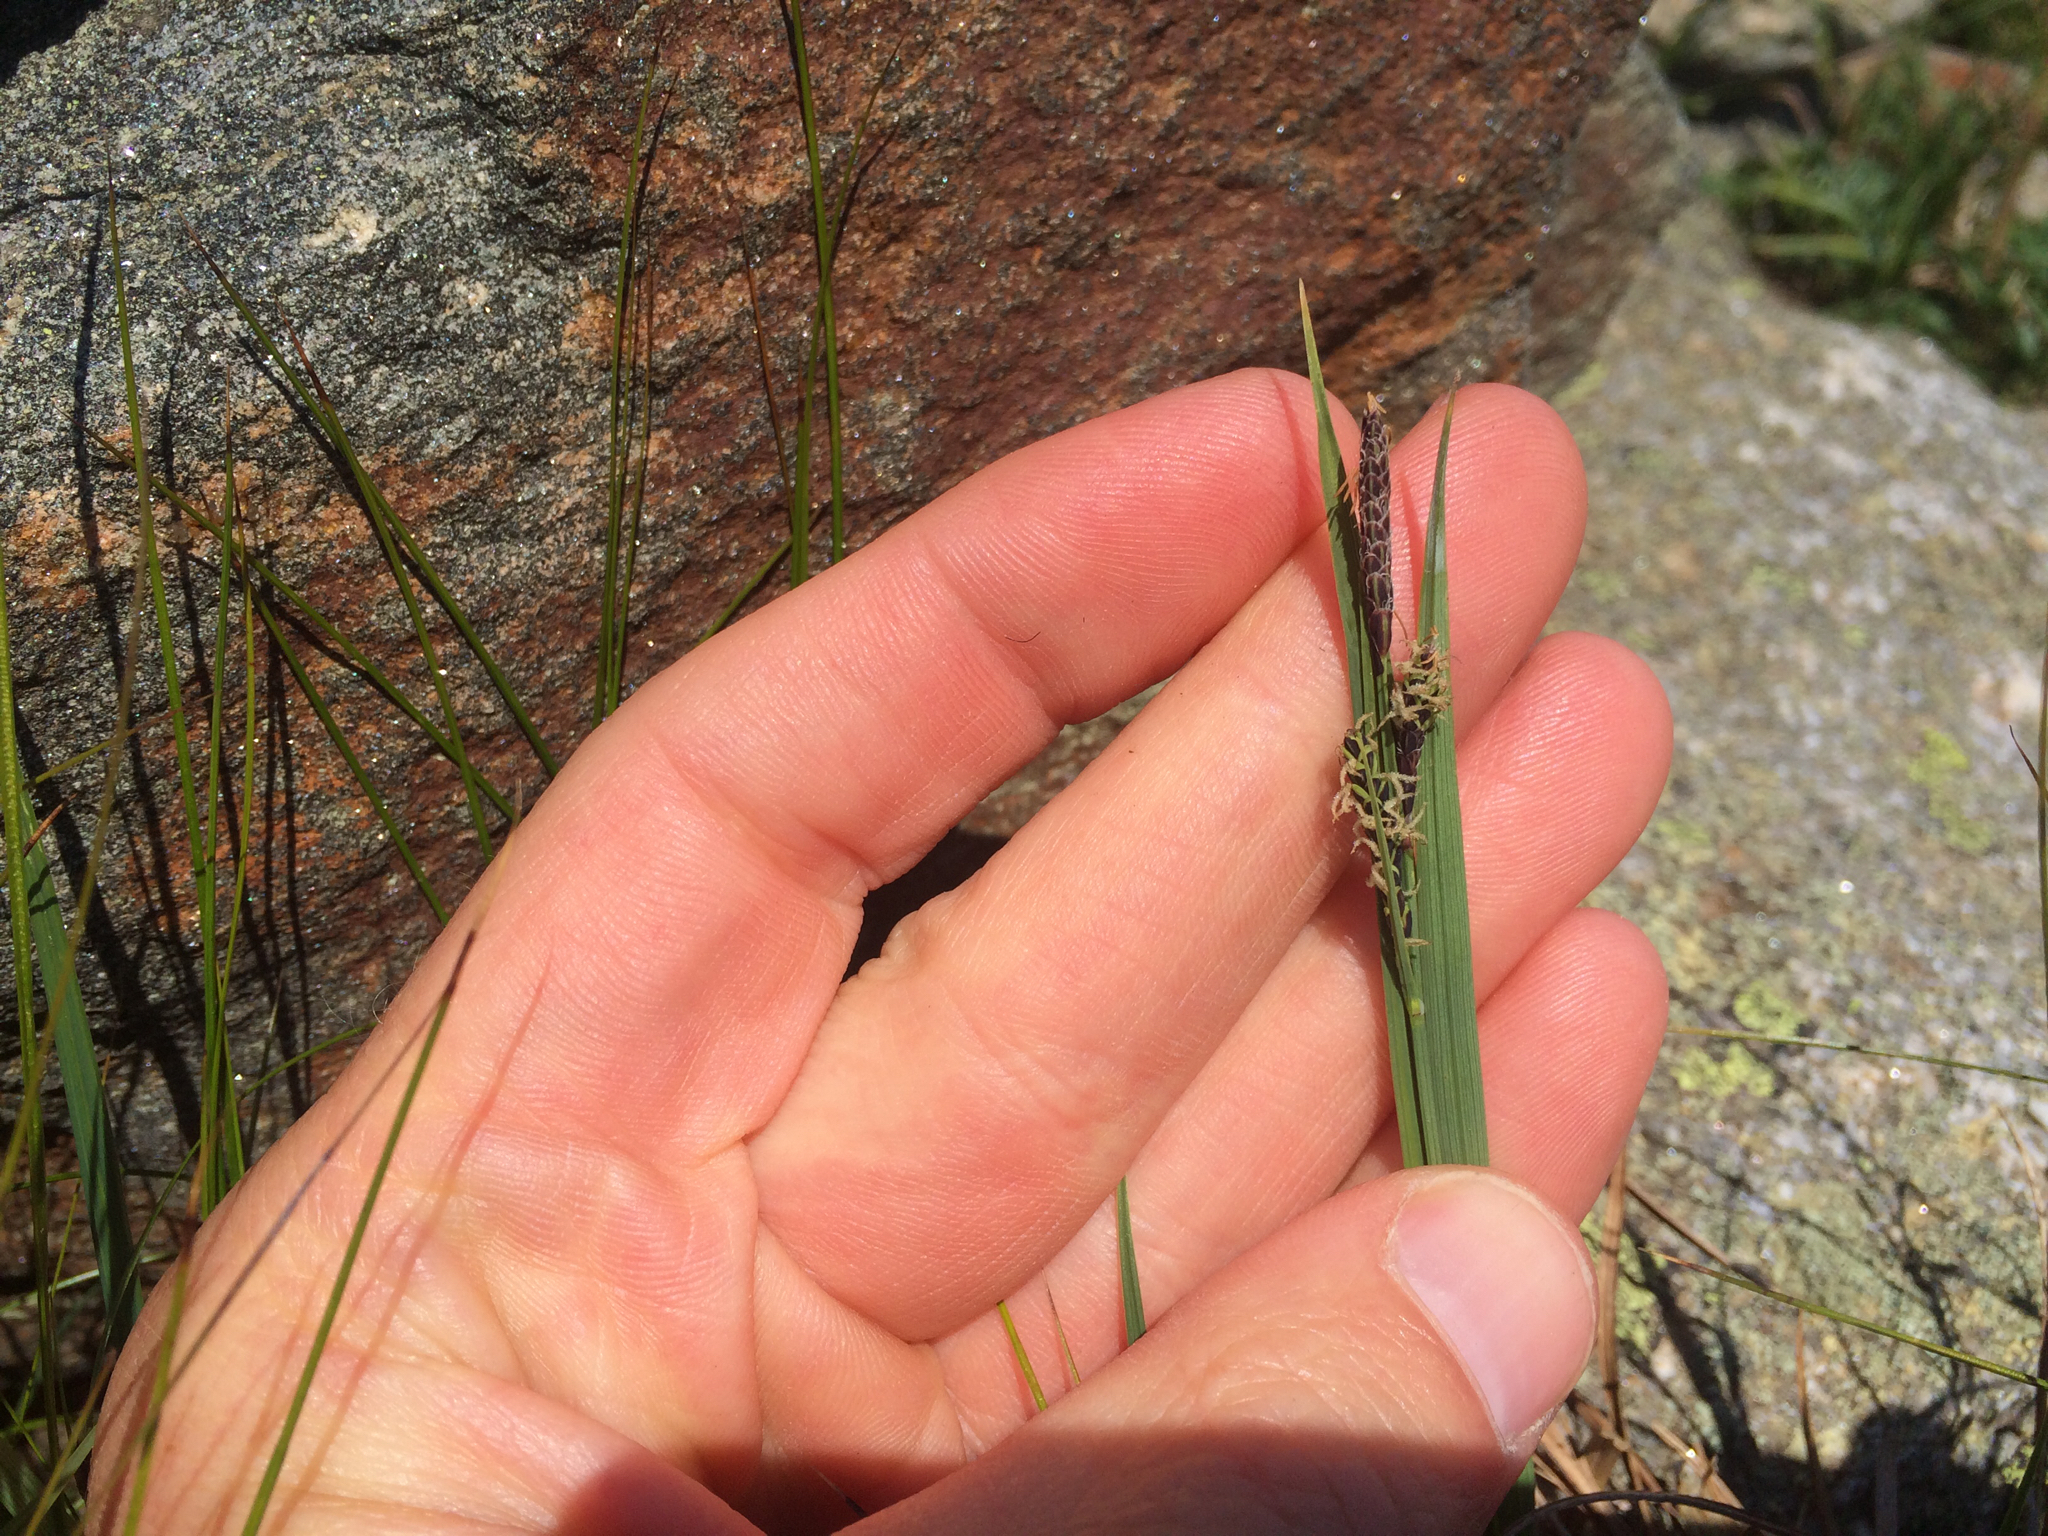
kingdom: Plantae
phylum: Tracheophyta
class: Liliopsida
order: Poales
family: Cyperaceae
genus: Carex
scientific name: Carex bigelowii
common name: Stiff sedge
